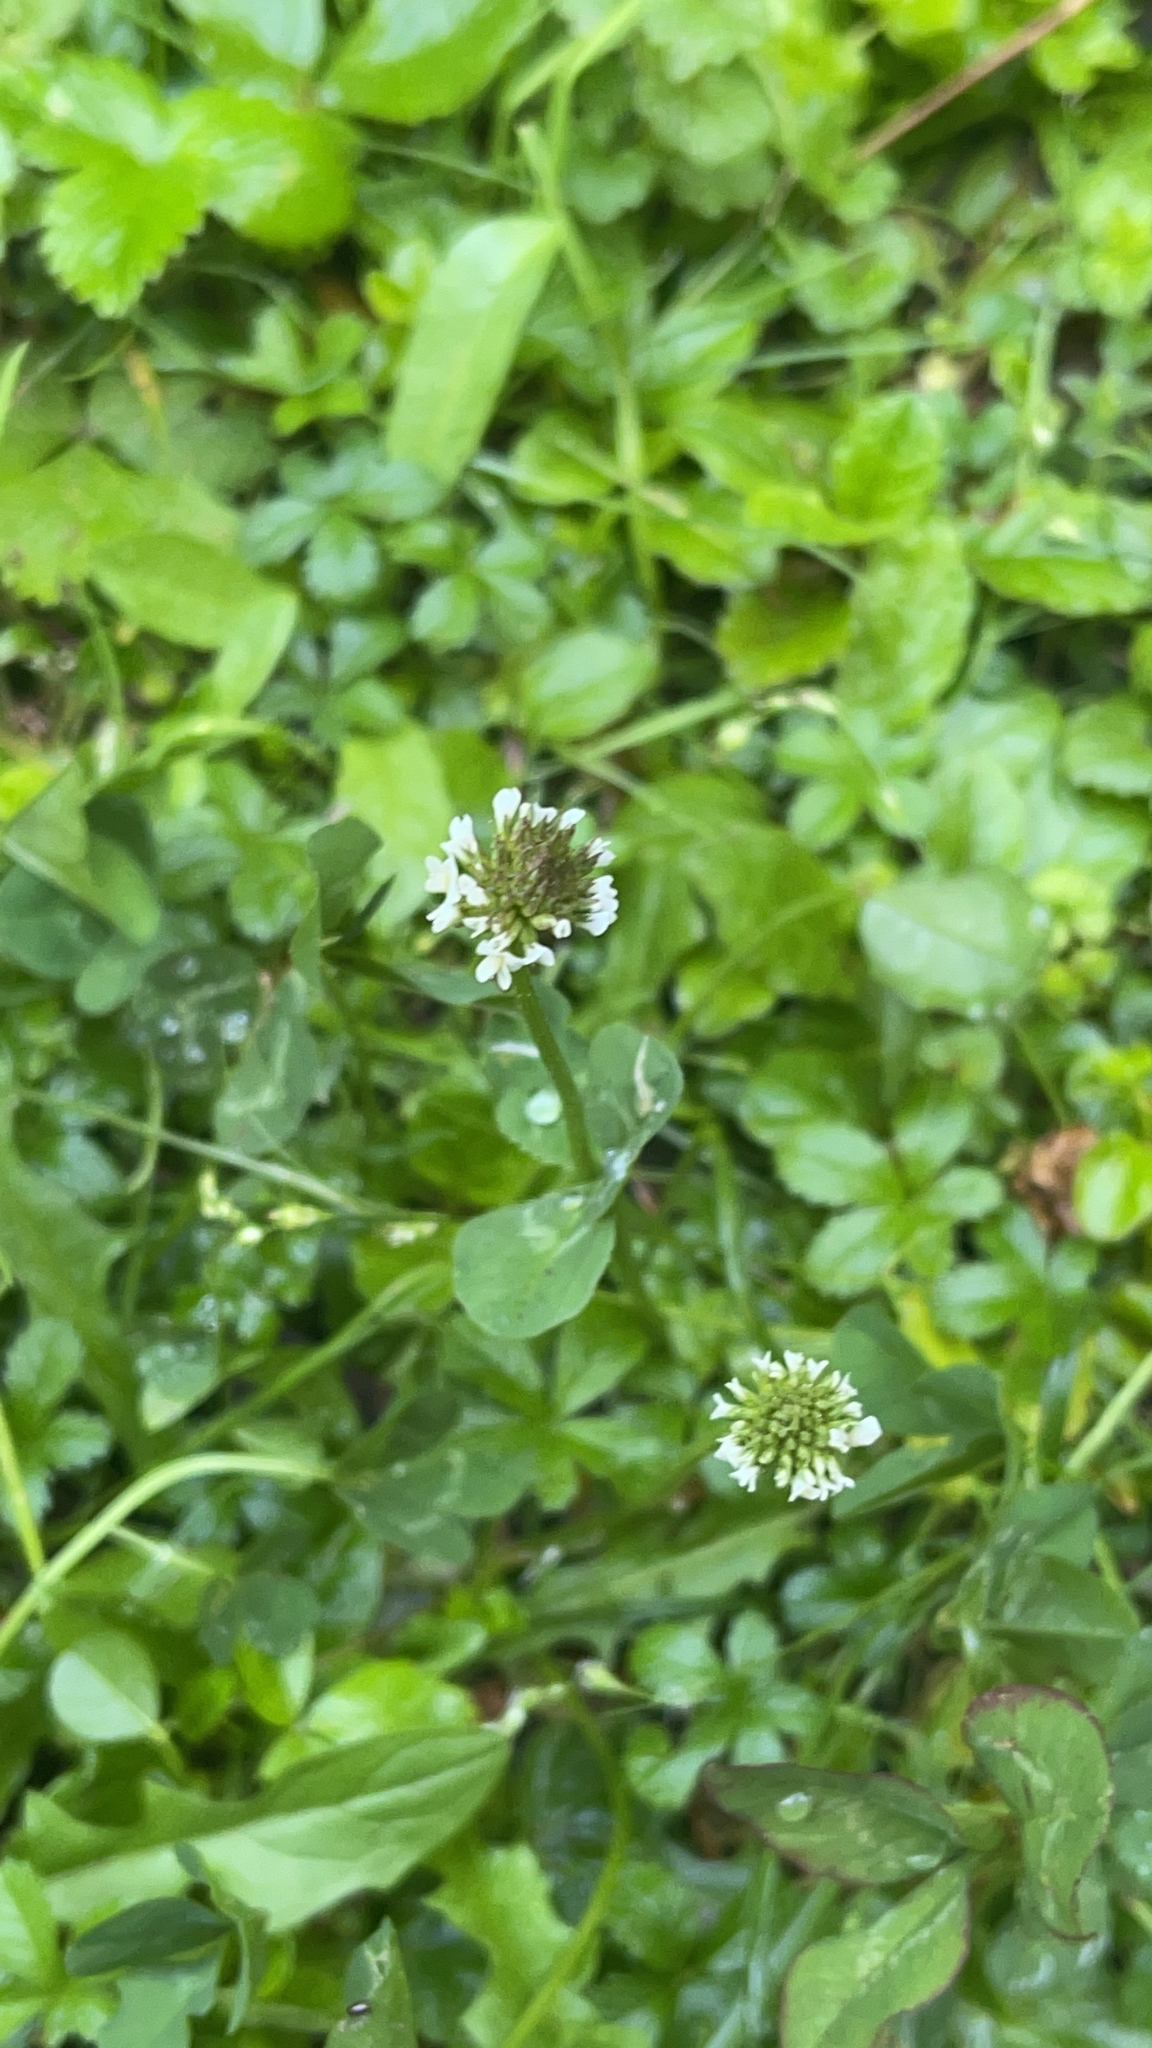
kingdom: Plantae
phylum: Tracheophyta
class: Magnoliopsida
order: Fabales
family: Fabaceae
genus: Trifolium
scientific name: Trifolium repens
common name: White clover
